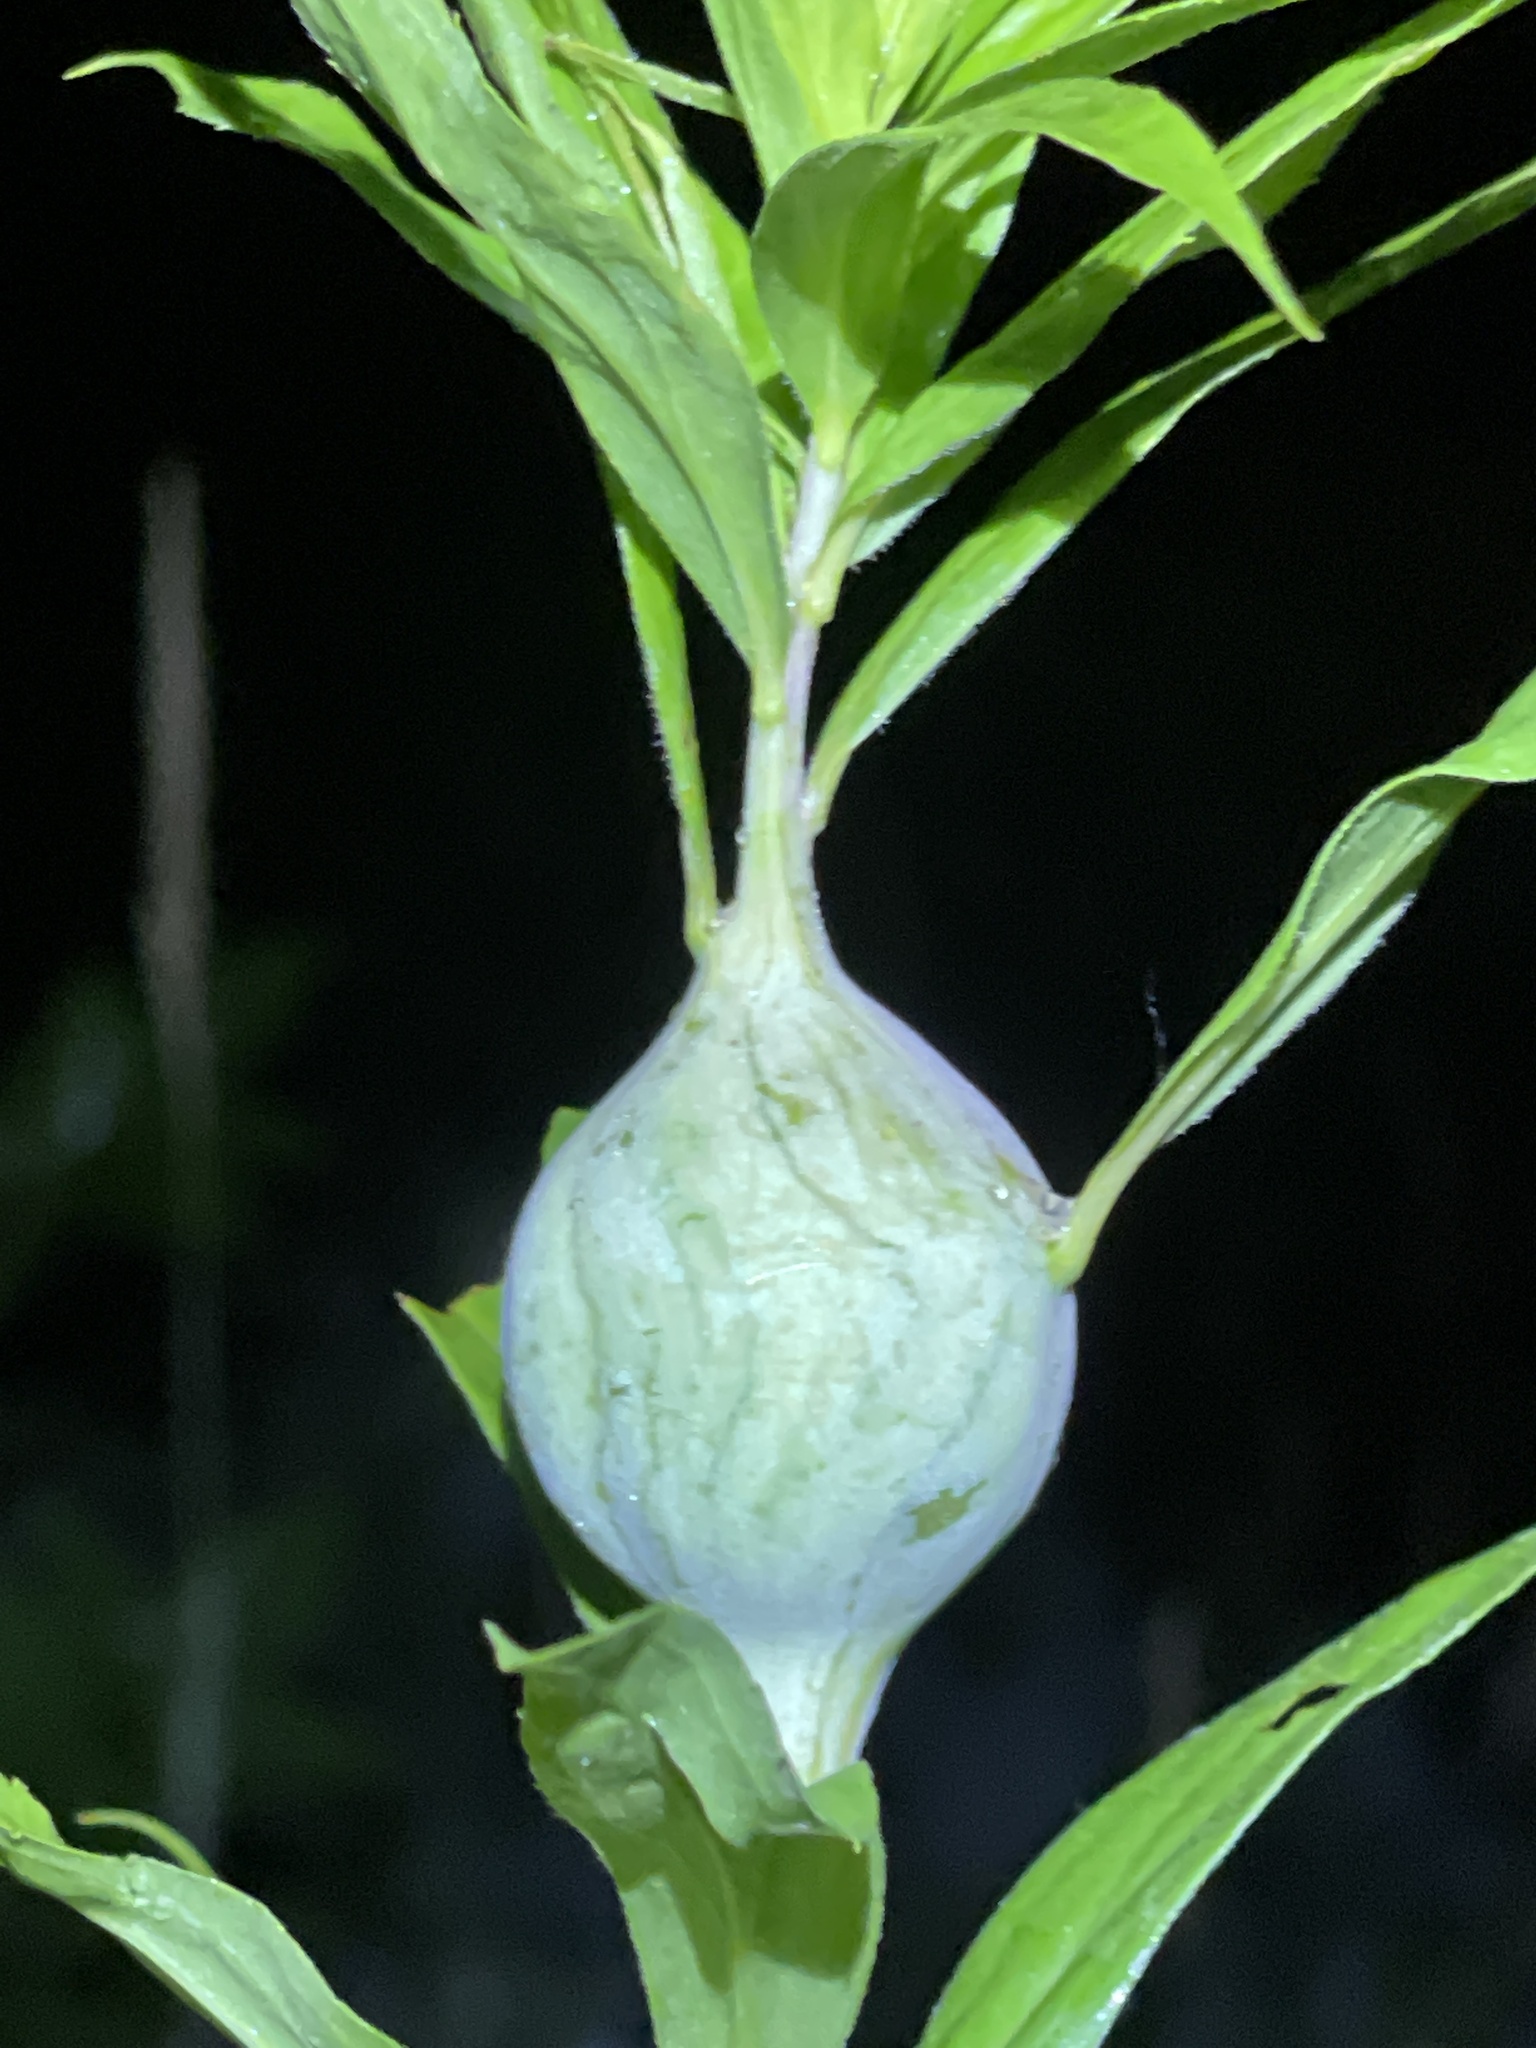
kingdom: Animalia
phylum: Arthropoda
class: Insecta
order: Diptera
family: Tephritidae
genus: Eurosta
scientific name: Eurosta solidaginis
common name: Goldenrod gall fly
